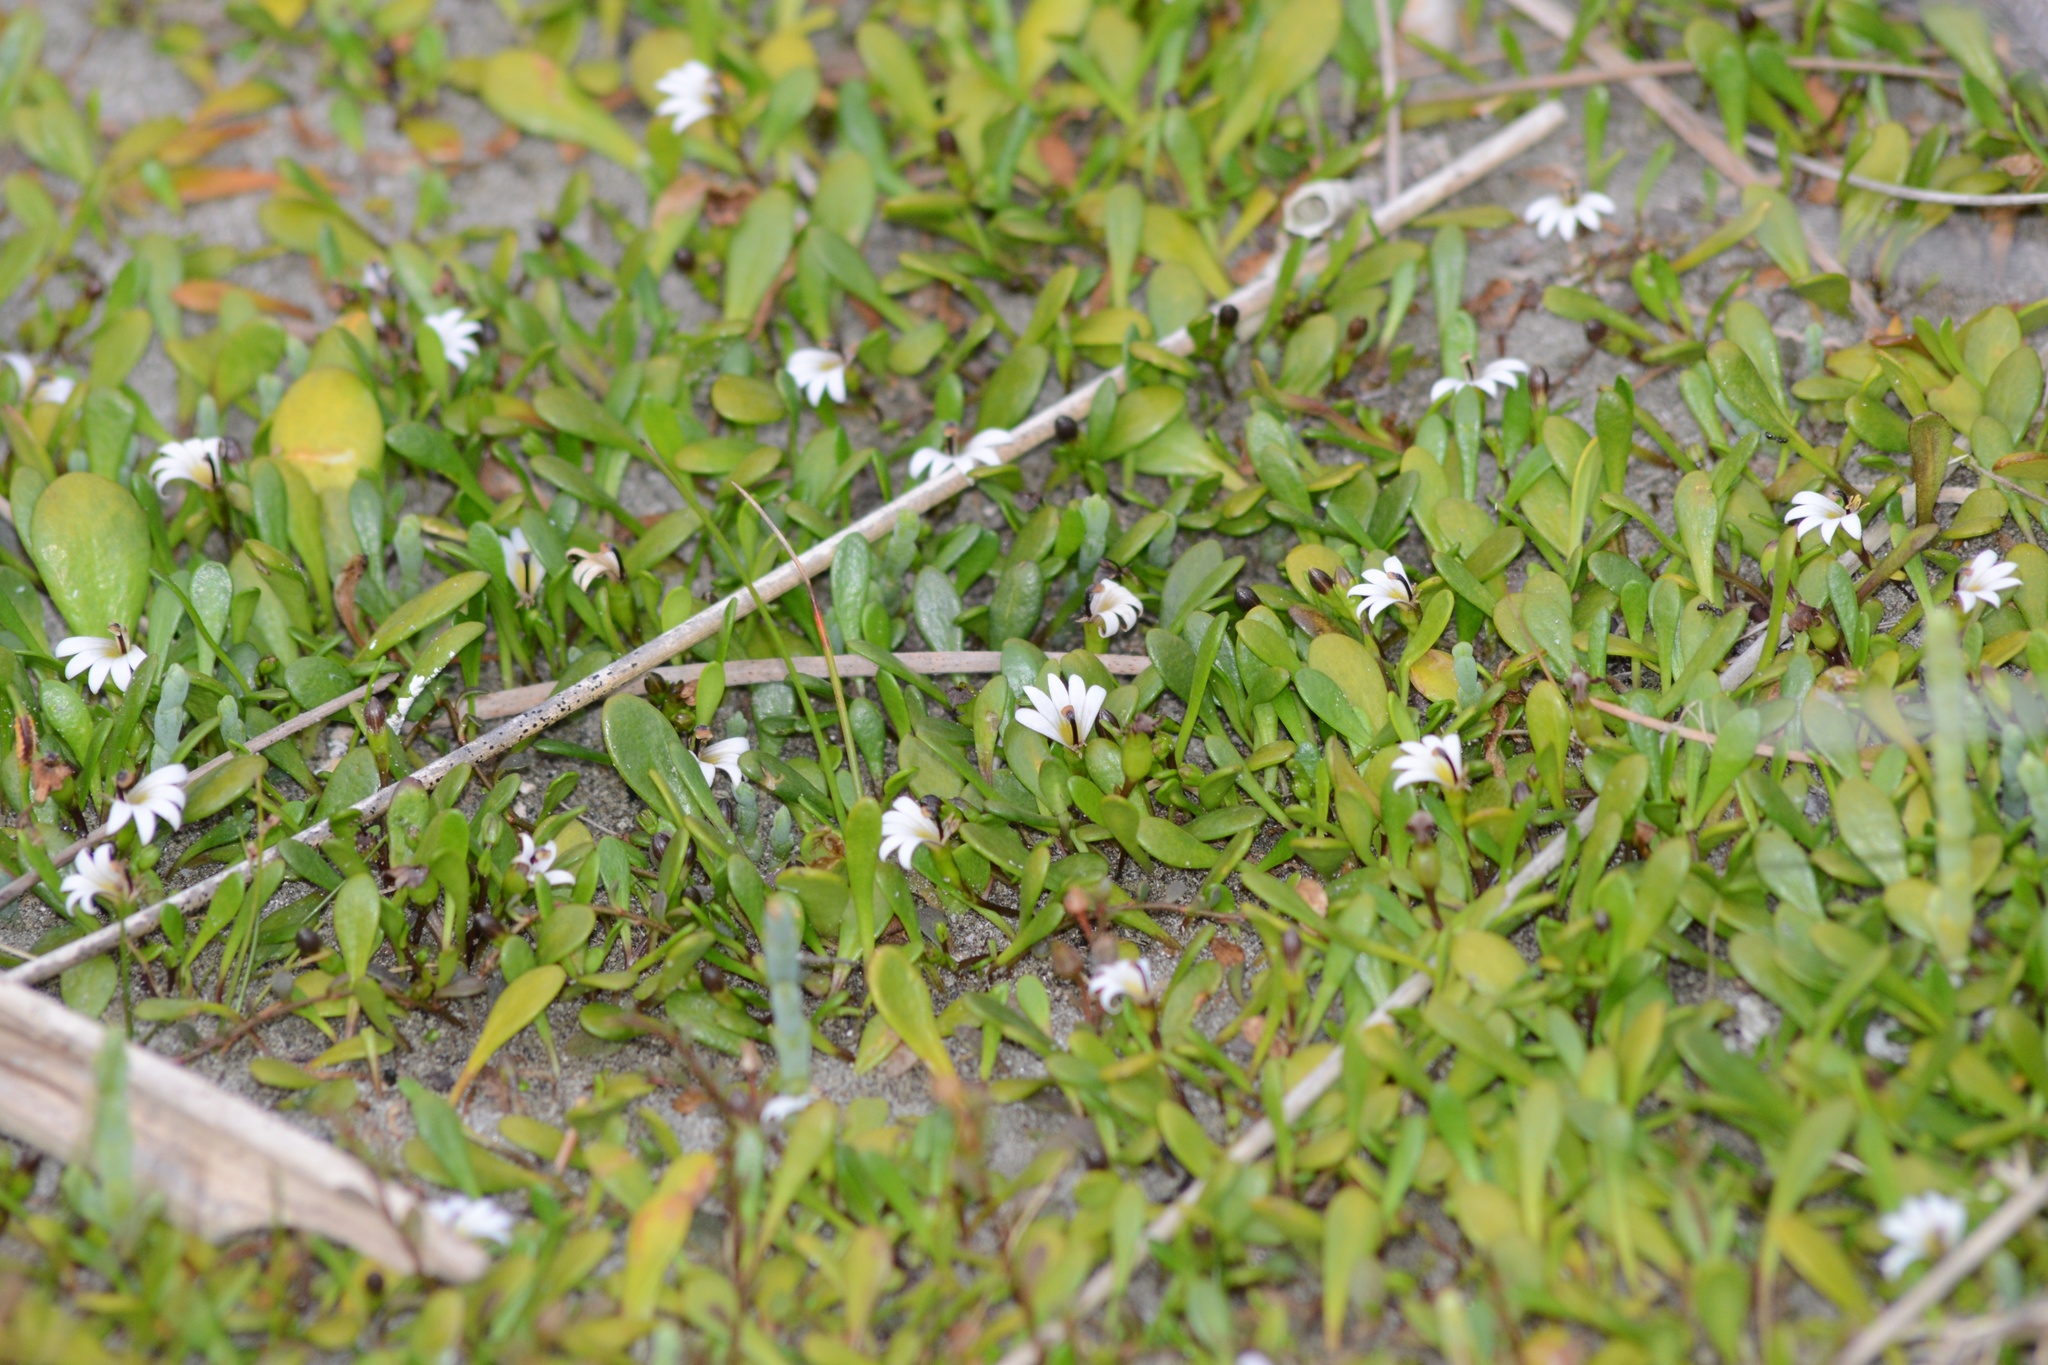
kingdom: Plantae
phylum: Tracheophyta
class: Magnoliopsida
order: Asterales
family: Goodeniaceae
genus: Goodenia
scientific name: Goodenia radicans
